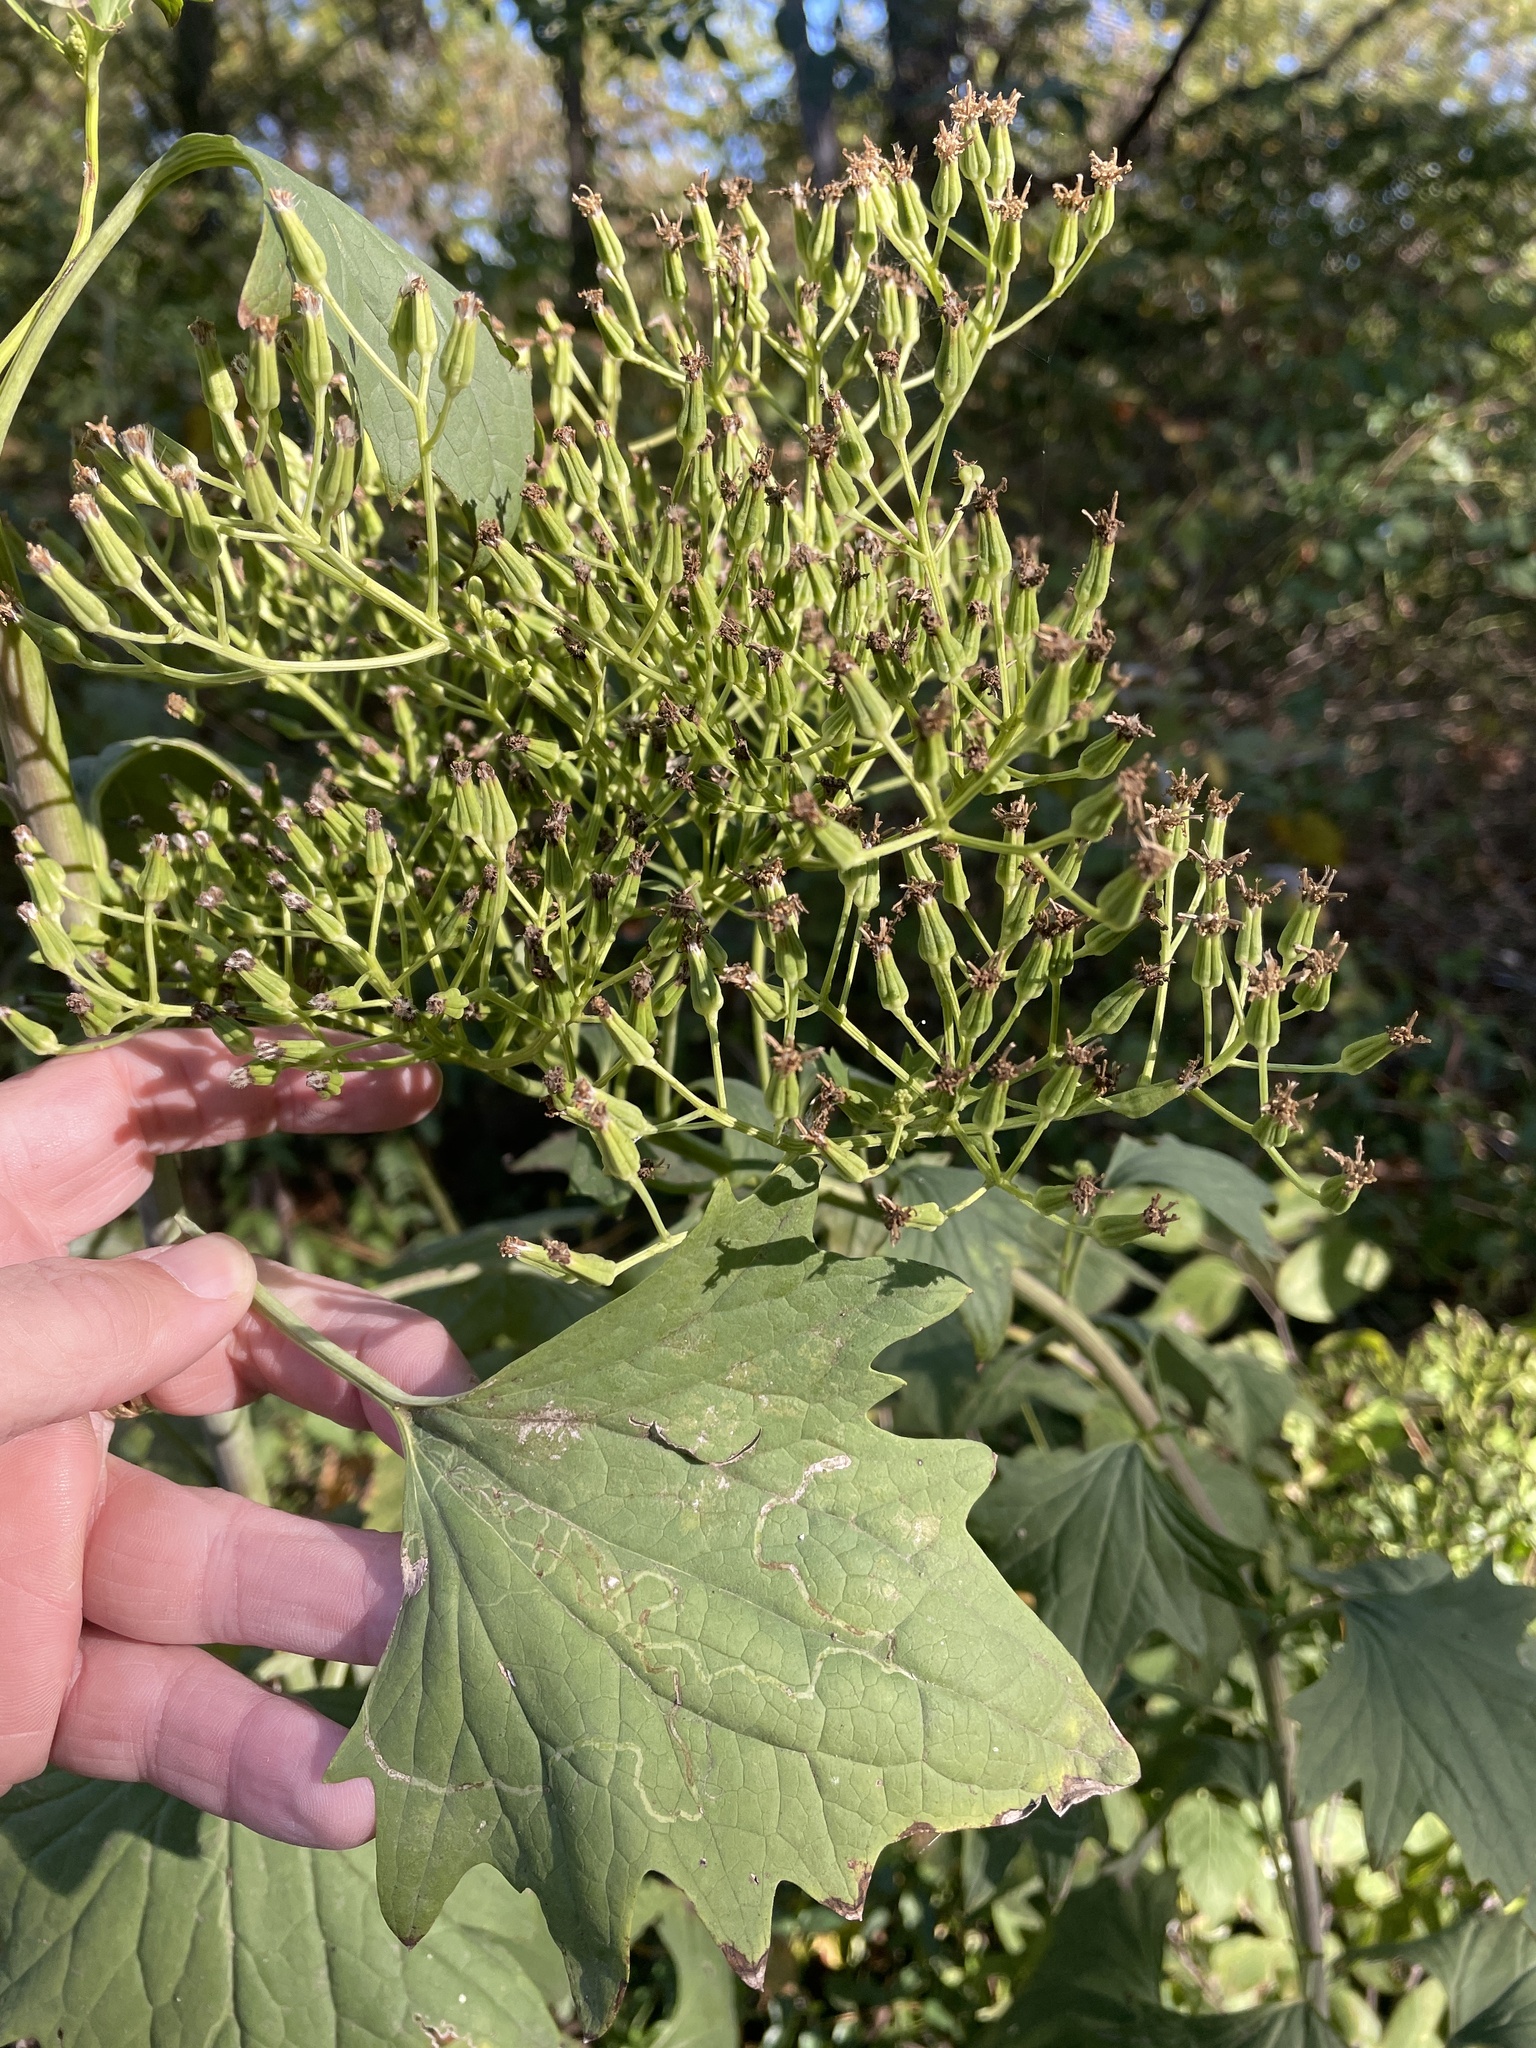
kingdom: Plantae
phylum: Tracheophyta
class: Magnoliopsida
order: Asterales
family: Asteraceae
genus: Arnoglossum
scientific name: Arnoglossum atriplicifolium
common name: Pale indian-plantain
